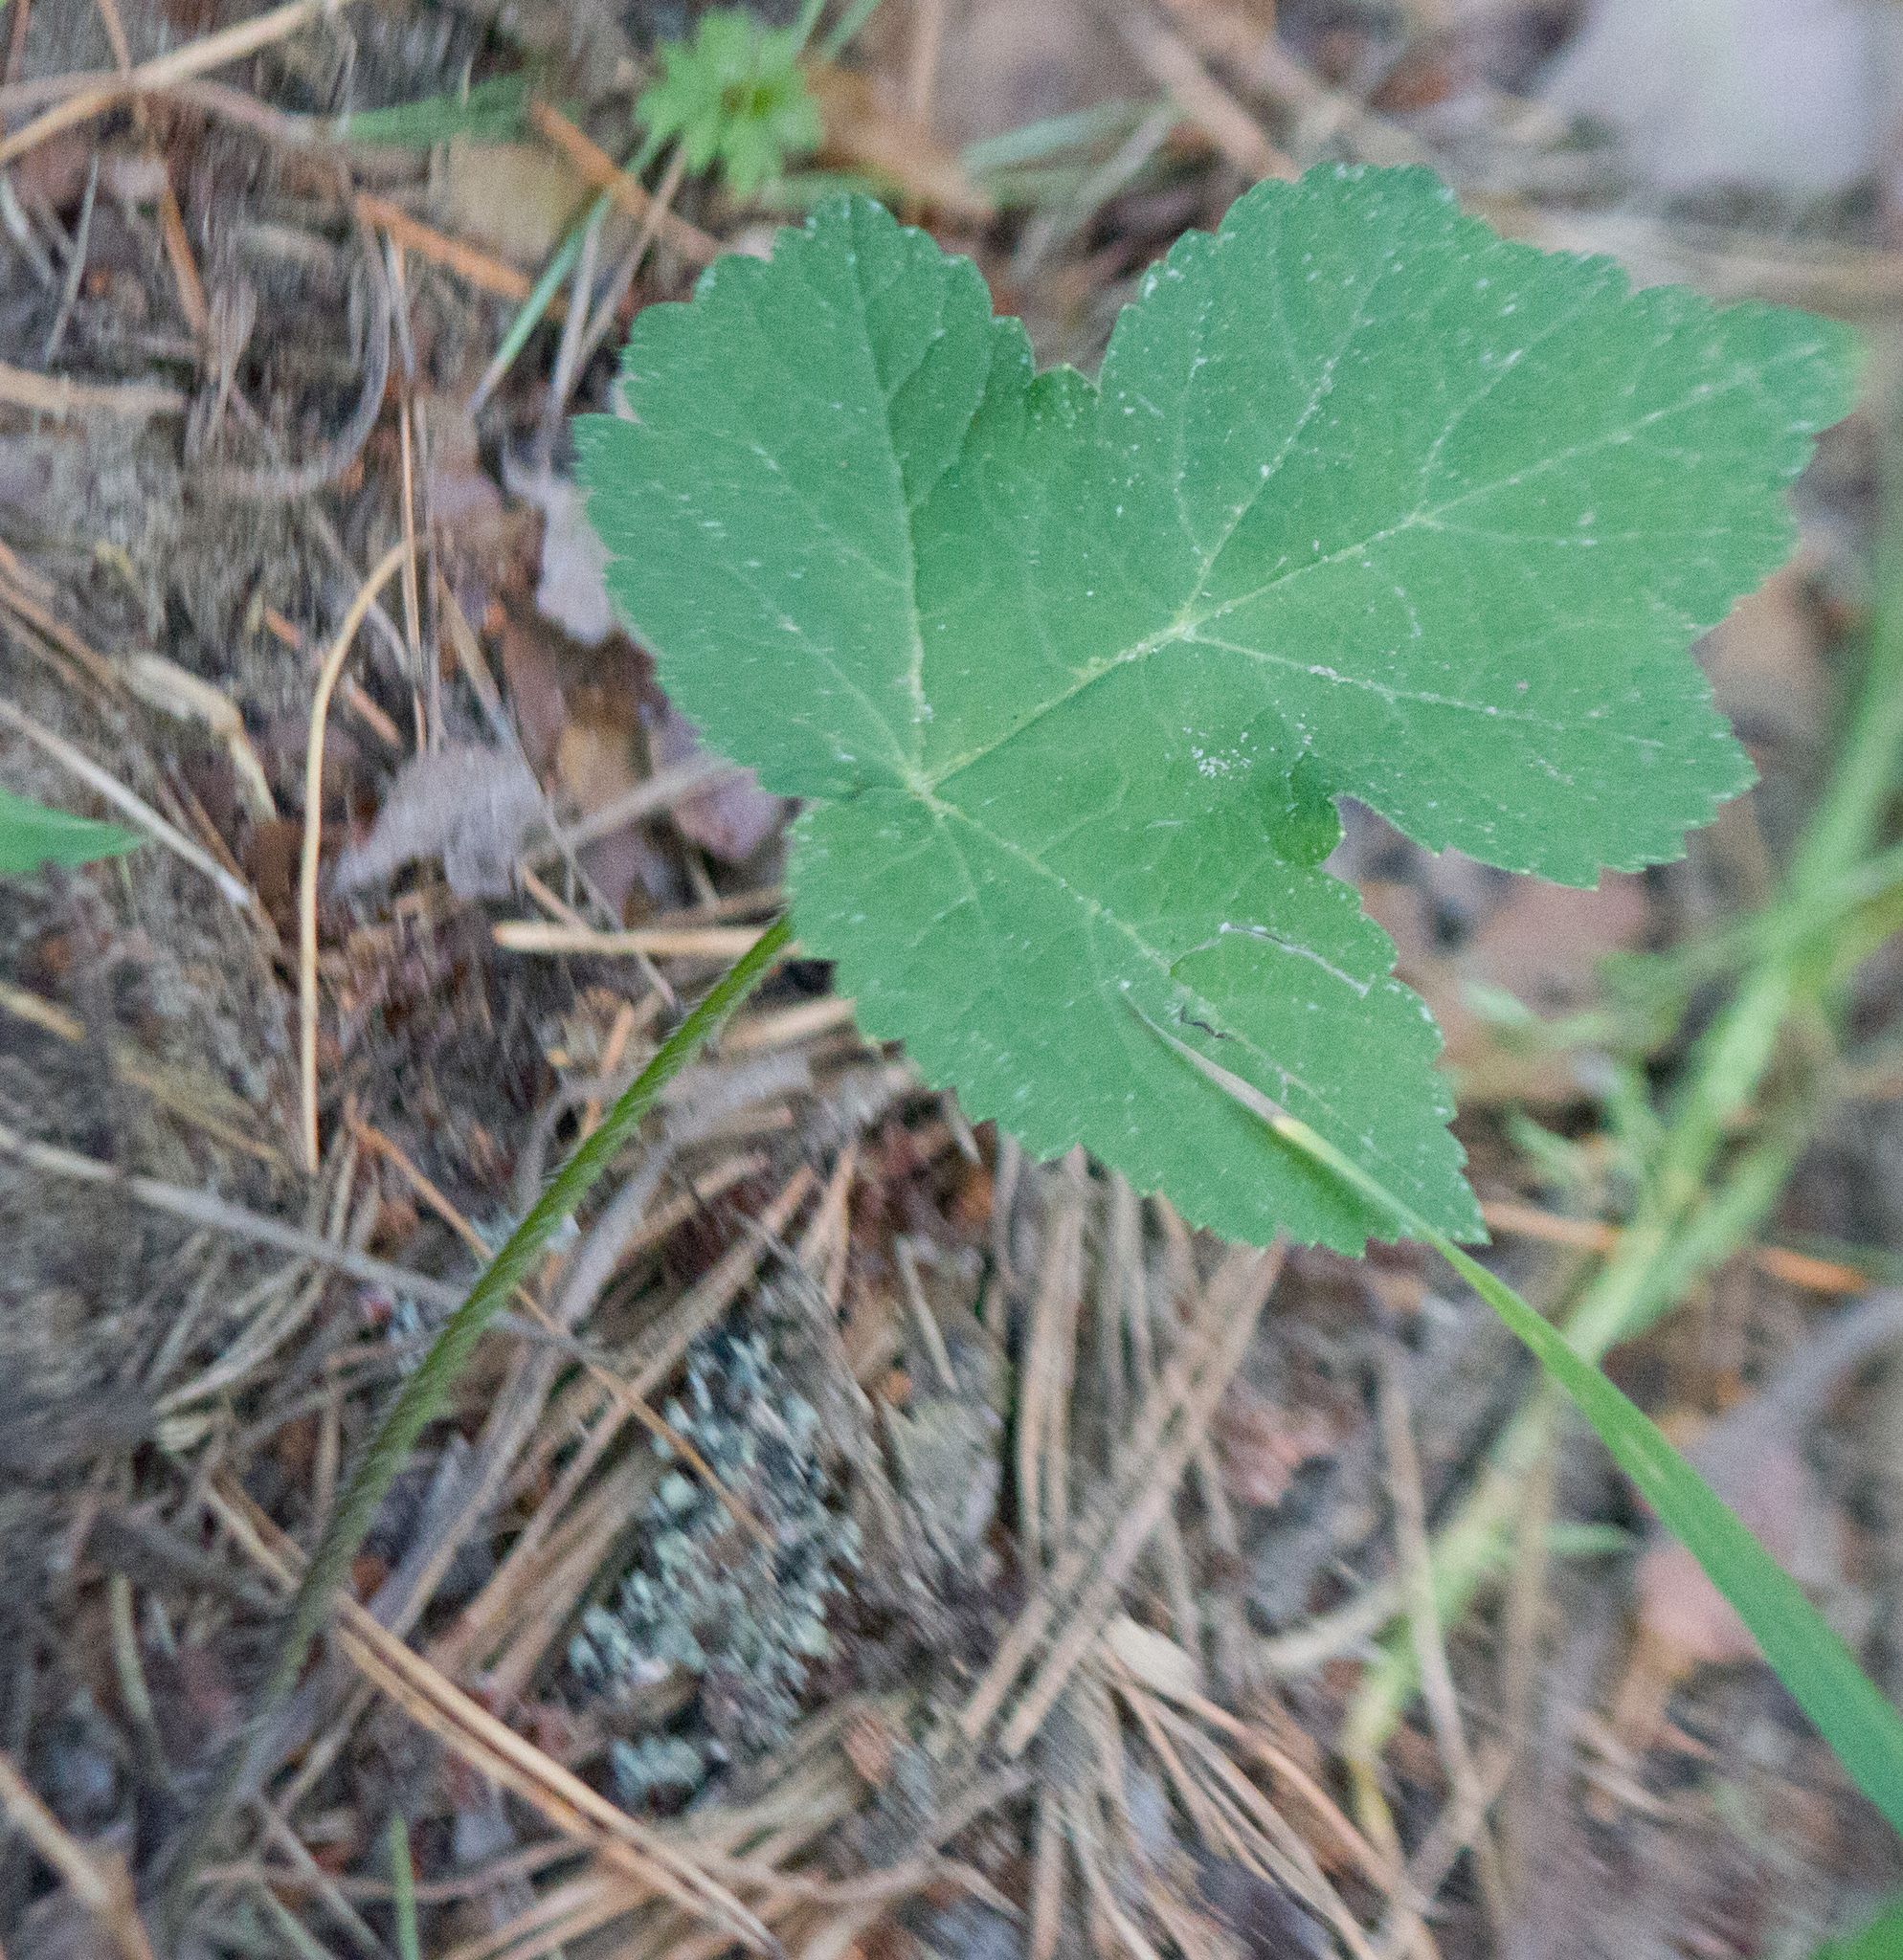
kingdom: Plantae
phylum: Tracheophyta
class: Magnoliopsida
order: Apiales
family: Apiaceae
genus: Heracleum
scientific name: Heracleum sphondylium
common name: Hogweed
